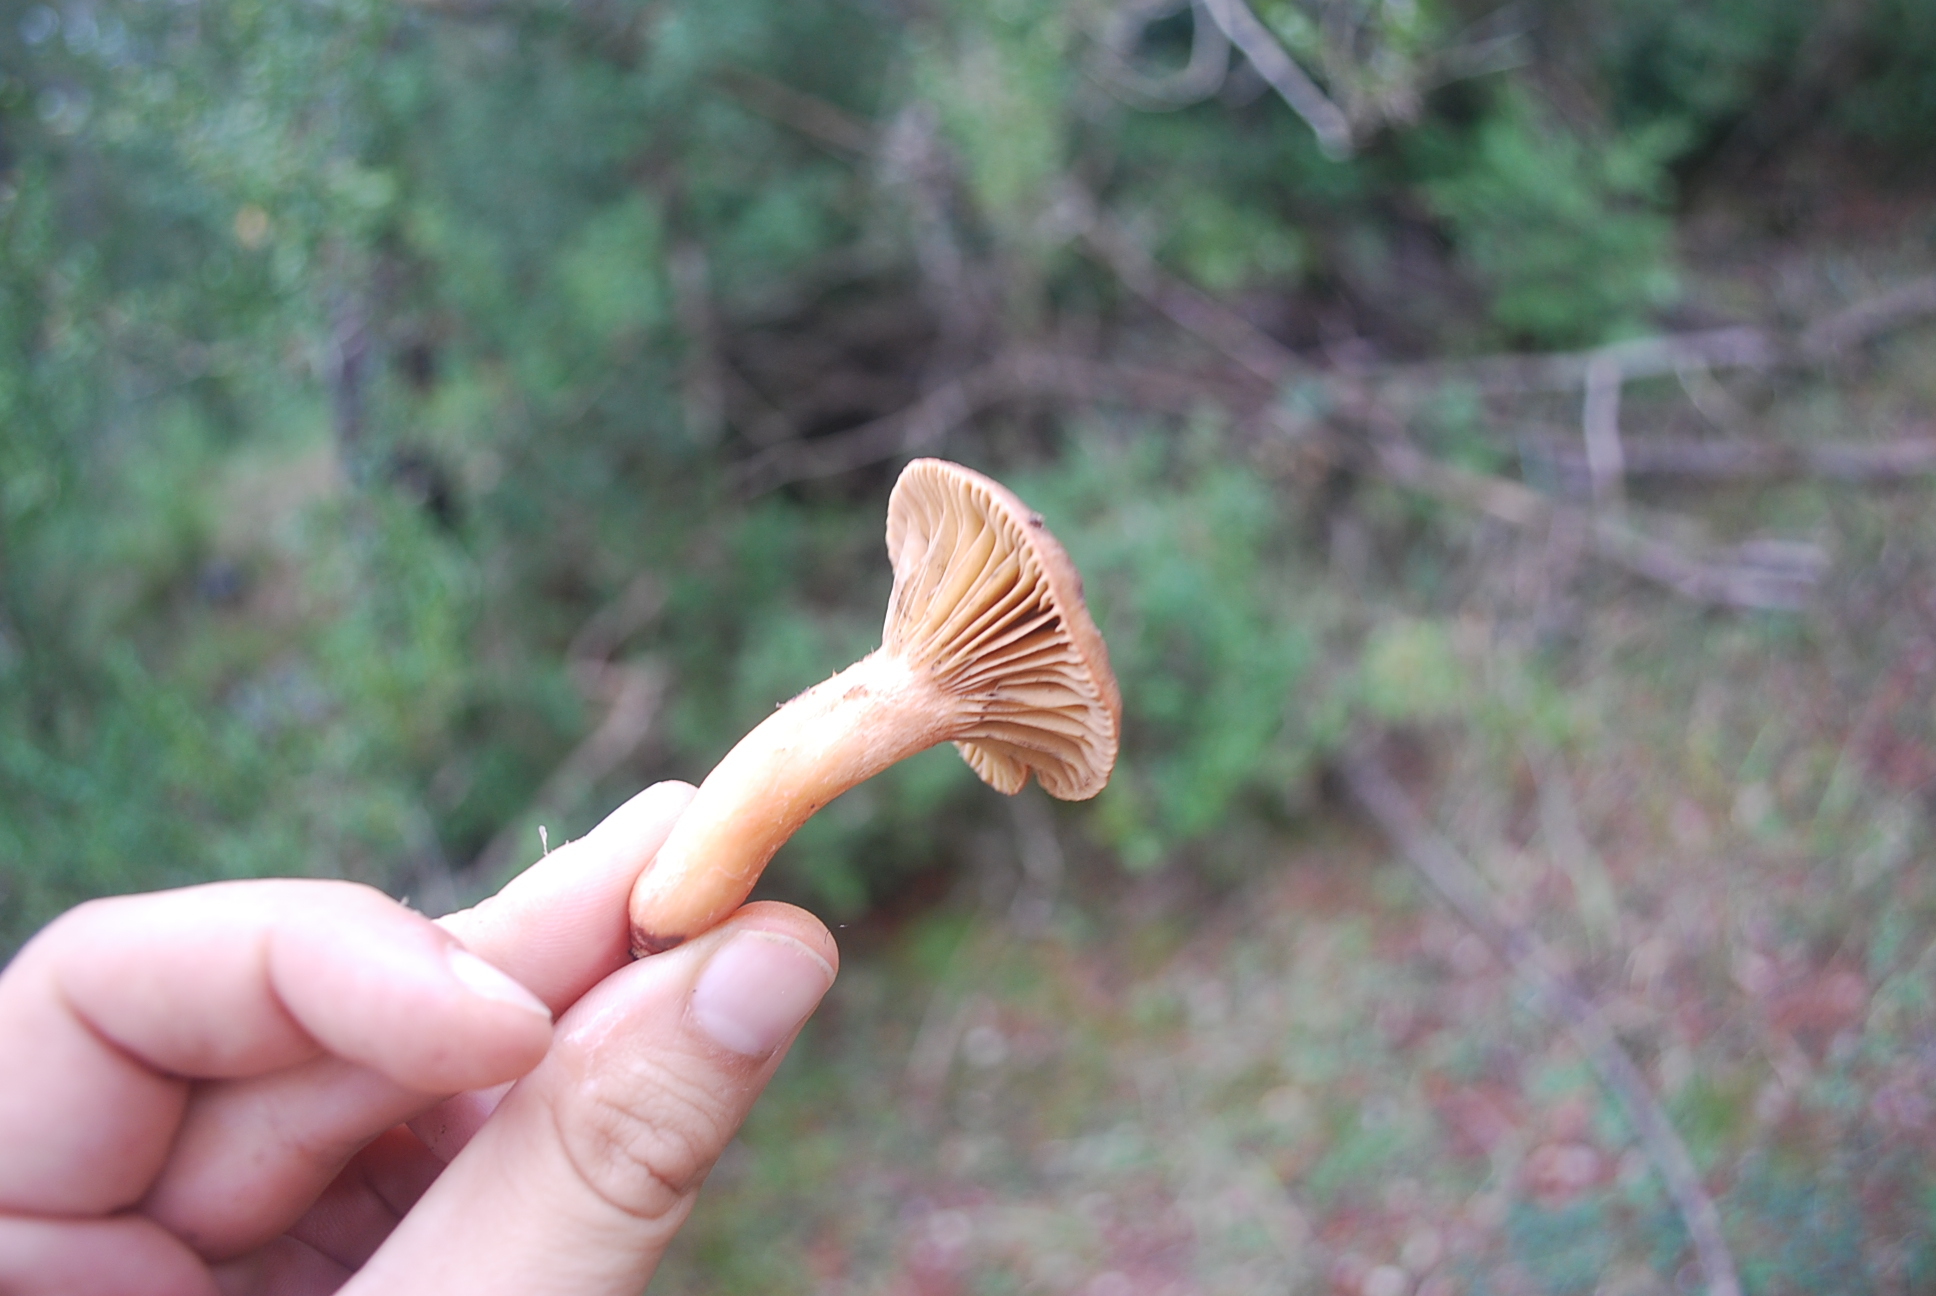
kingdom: Fungi
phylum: Basidiomycota
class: Agaricomycetes
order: Boletales
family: Gomphidiaceae
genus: Chroogomphus
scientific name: Chroogomphus rutilus
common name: Copper spike
